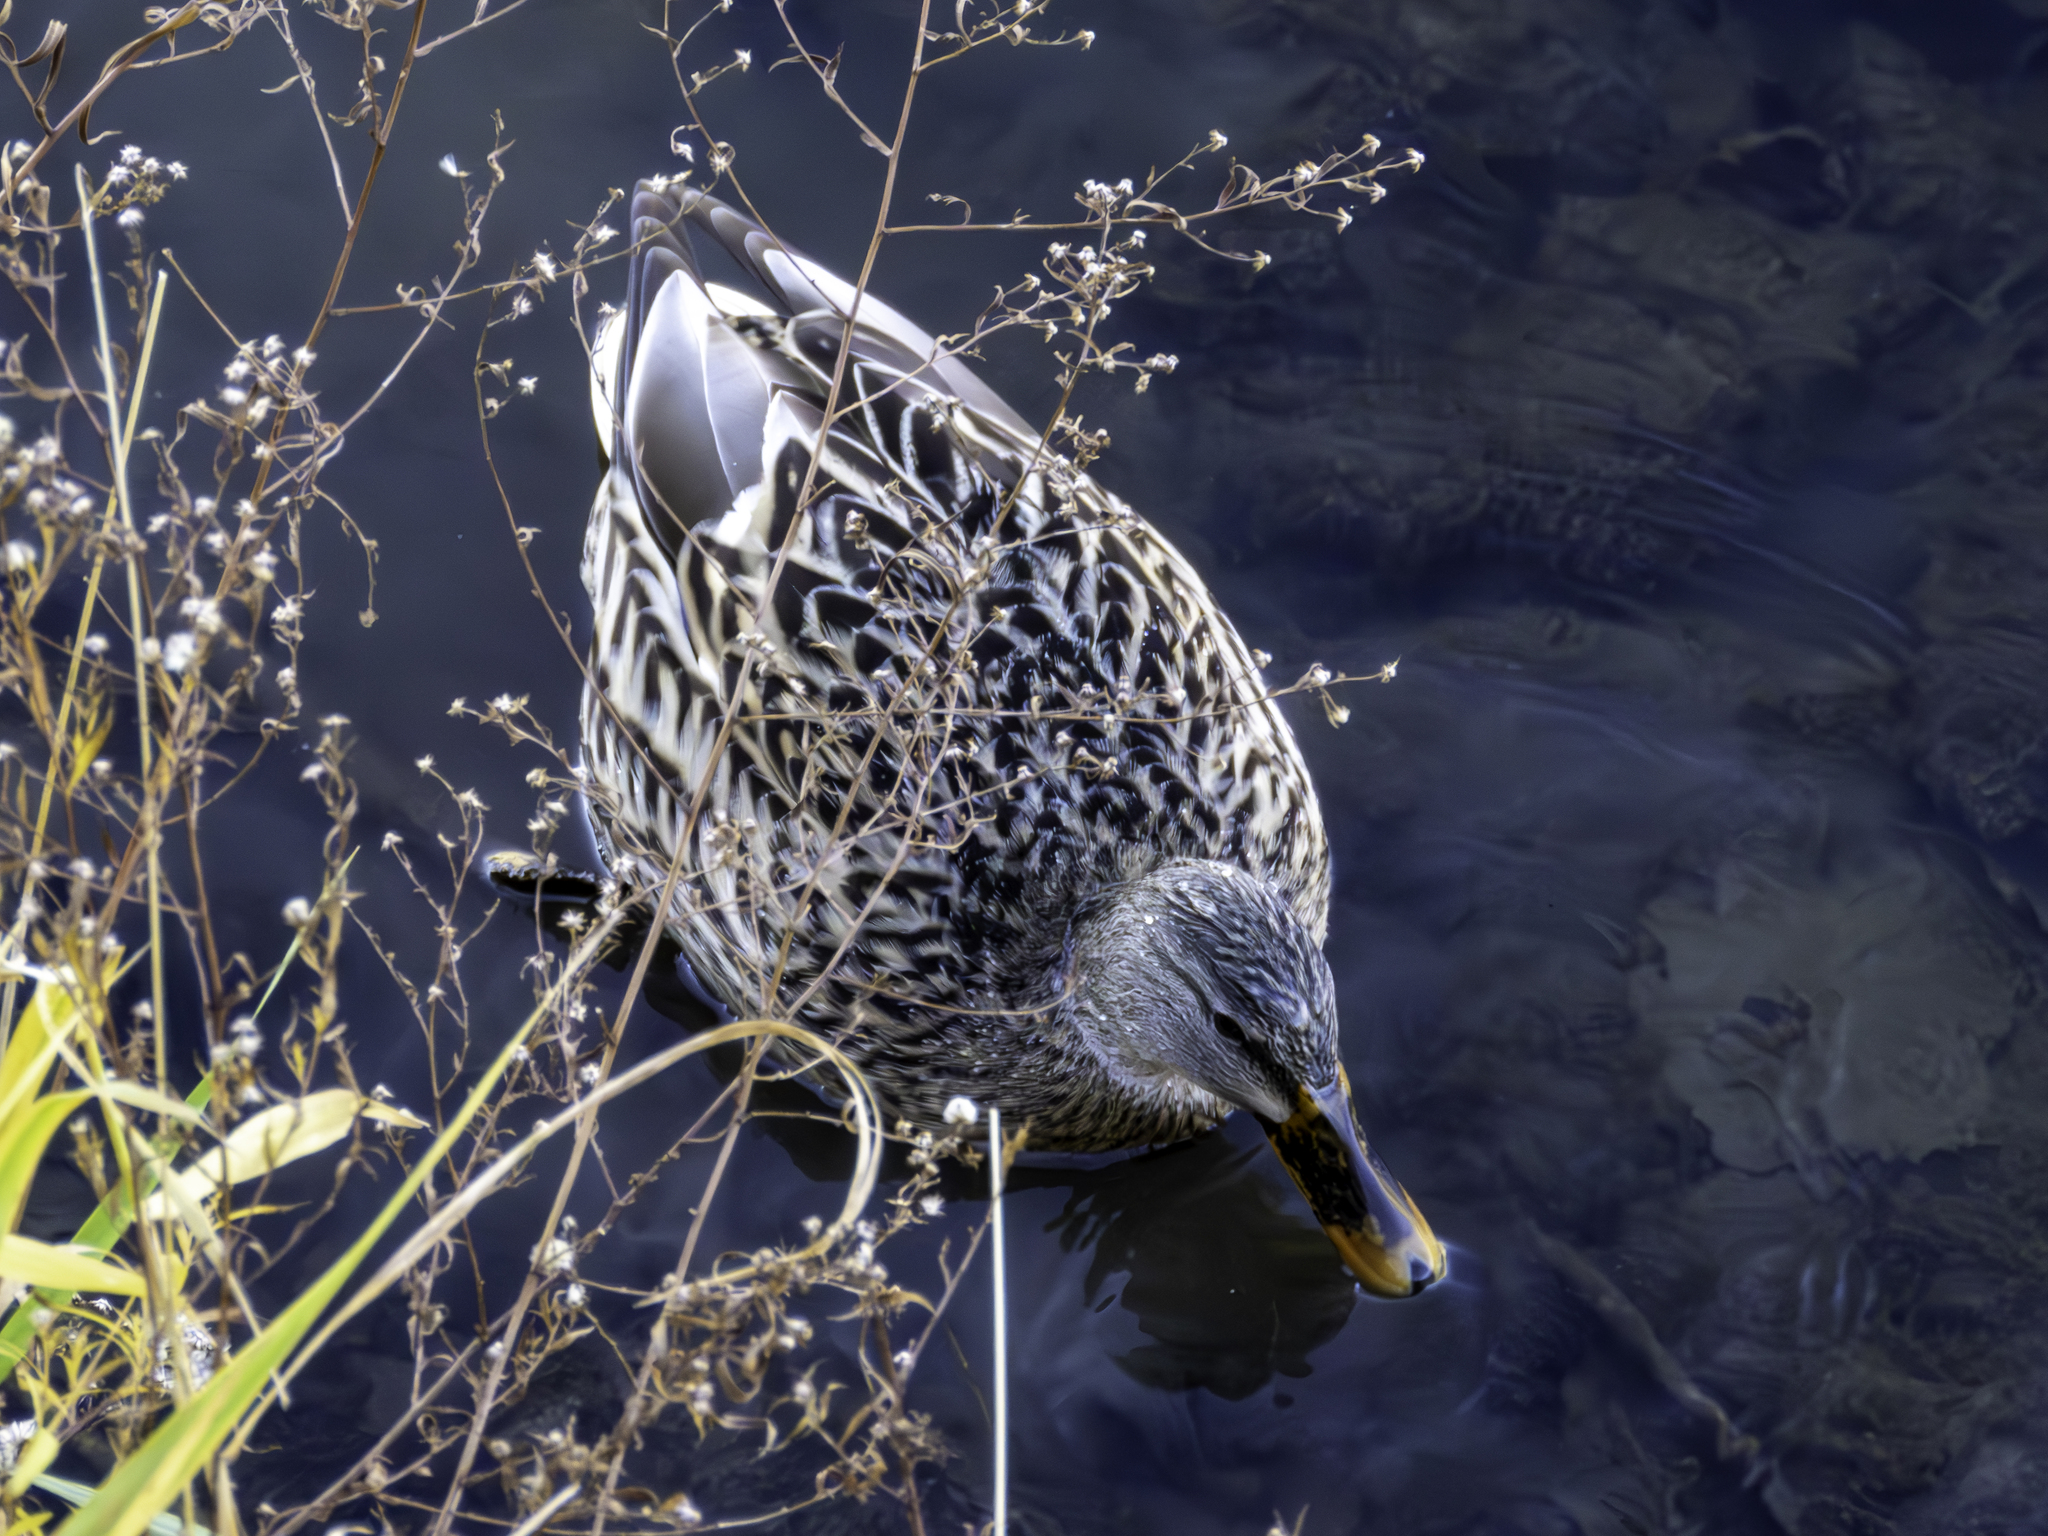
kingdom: Animalia
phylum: Chordata
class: Aves
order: Anseriformes
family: Anatidae
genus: Anas
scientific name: Anas platyrhynchos
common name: Mallard
